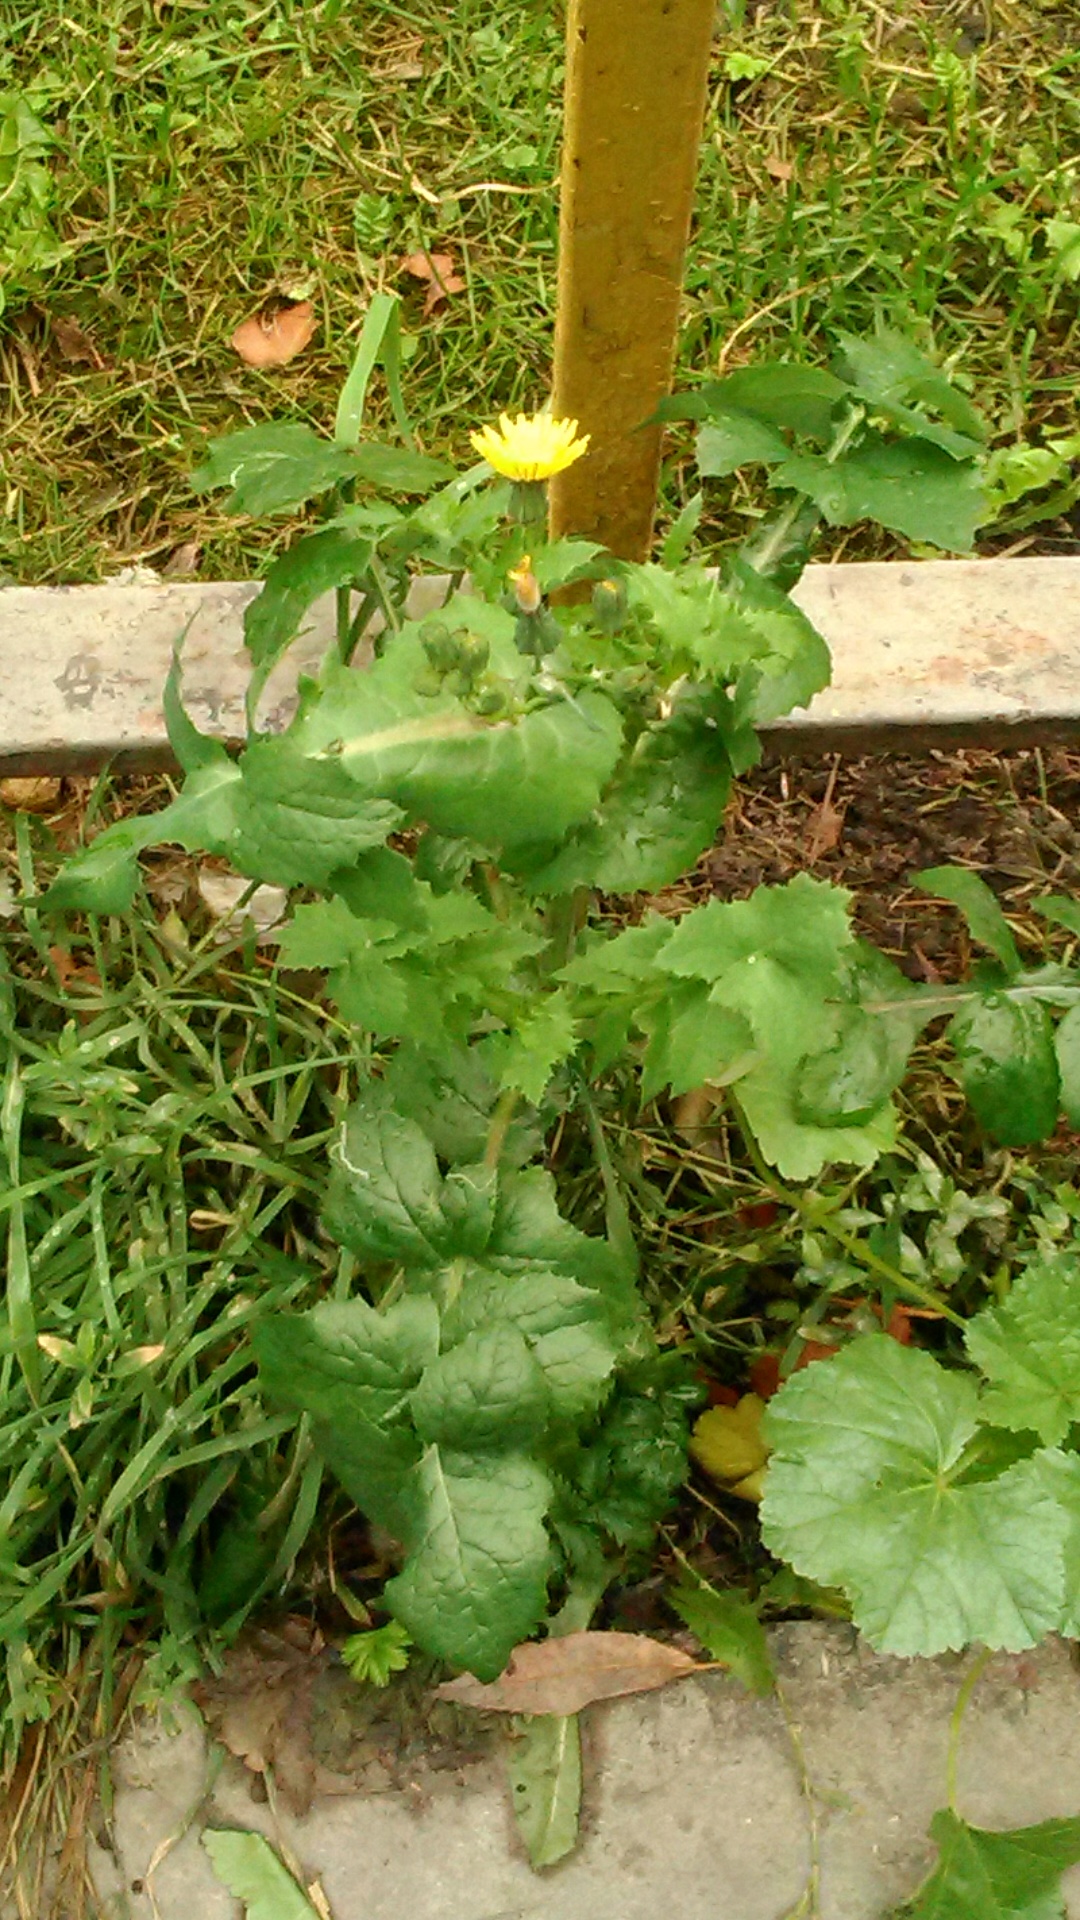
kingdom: Plantae
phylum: Tracheophyta
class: Magnoliopsida
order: Asterales
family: Asteraceae
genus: Sonchus
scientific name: Sonchus oleraceus
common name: Common sowthistle
